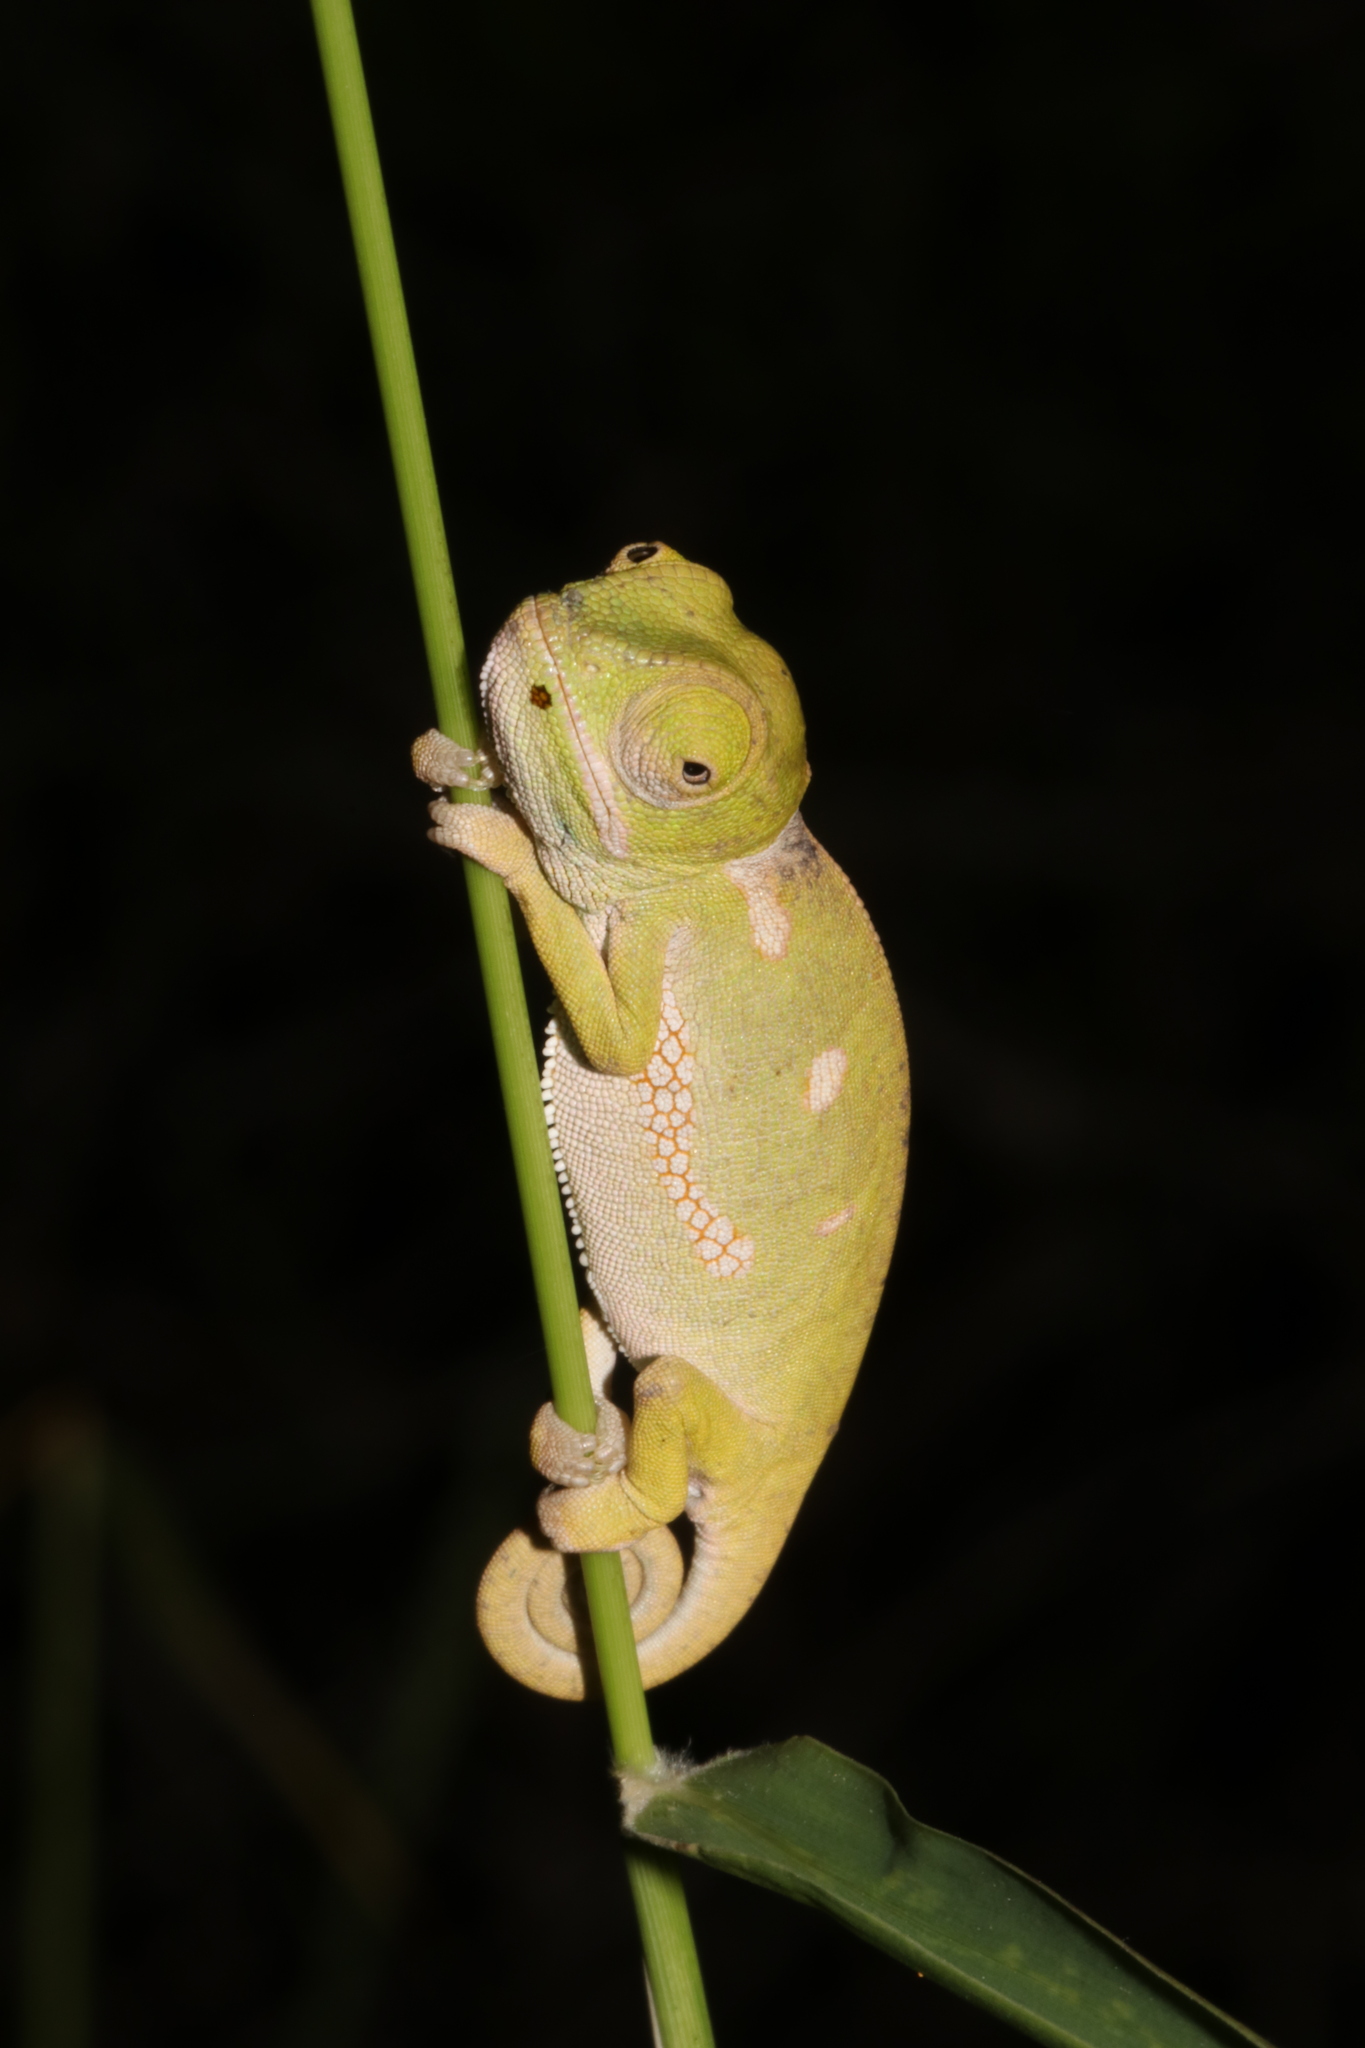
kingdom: Animalia
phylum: Chordata
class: Squamata
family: Chamaeleonidae
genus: Chamaeleo
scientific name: Chamaeleo dilepis
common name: Flapneck chameleon
